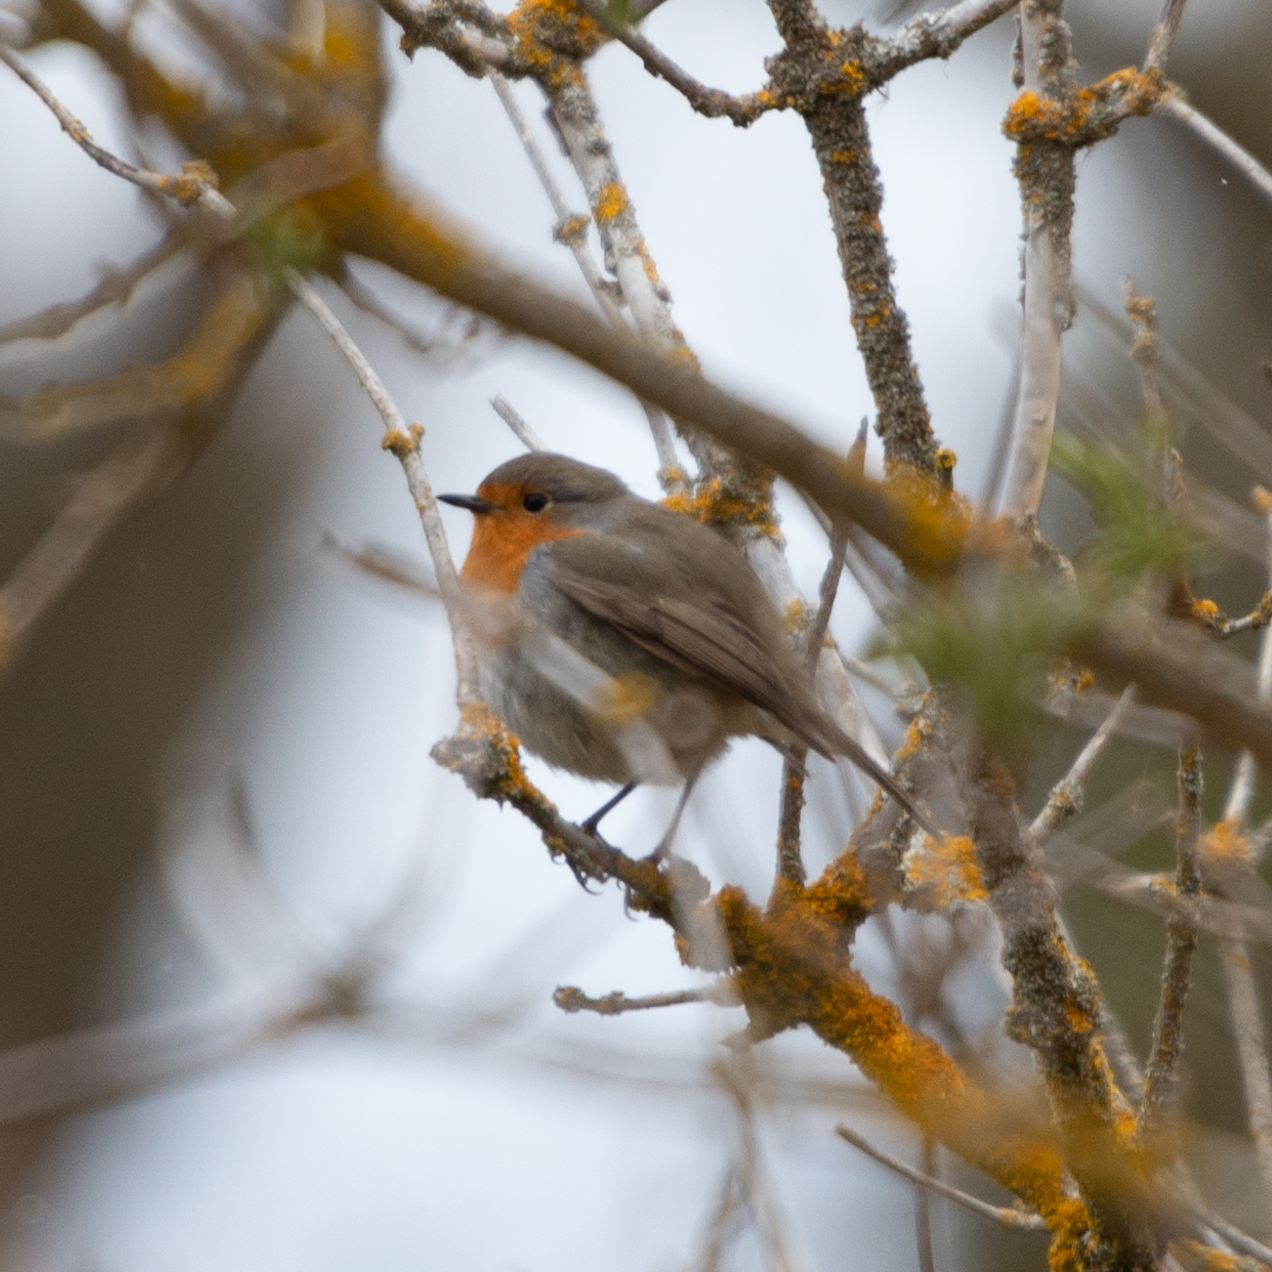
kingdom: Animalia
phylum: Chordata
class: Aves
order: Passeriformes
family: Muscicapidae
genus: Erithacus
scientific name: Erithacus rubecula
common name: European robin
